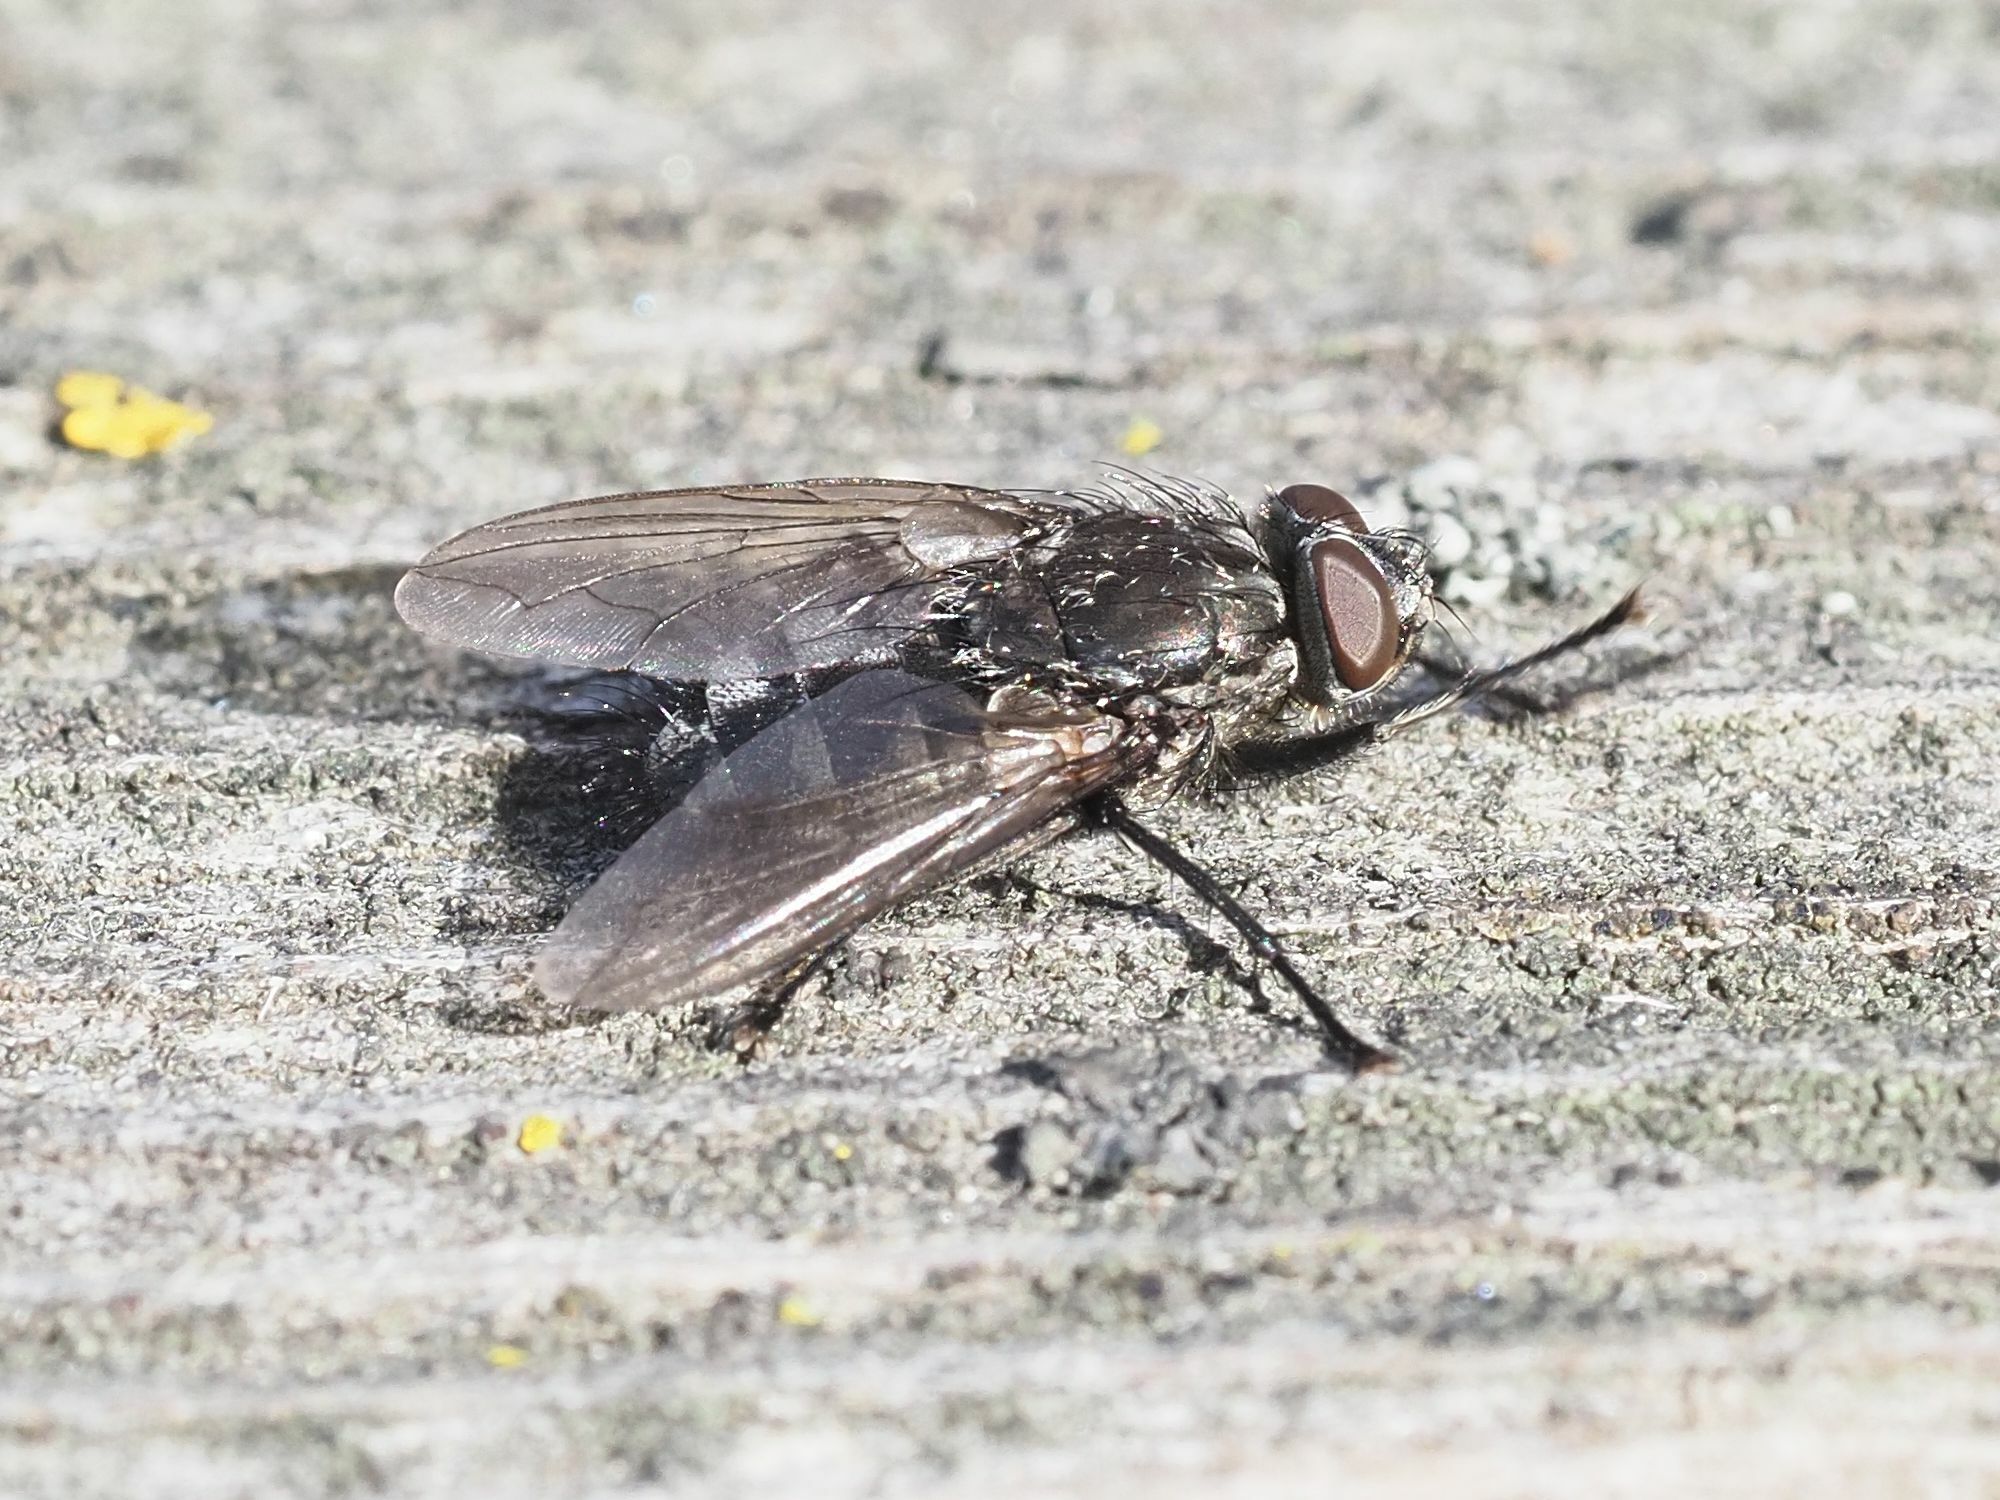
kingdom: Animalia
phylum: Arthropoda
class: Insecta
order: Diptera
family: Polleniidae
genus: Pollenia
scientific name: Pollenia vagabunda
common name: Vagabund cluster fly
